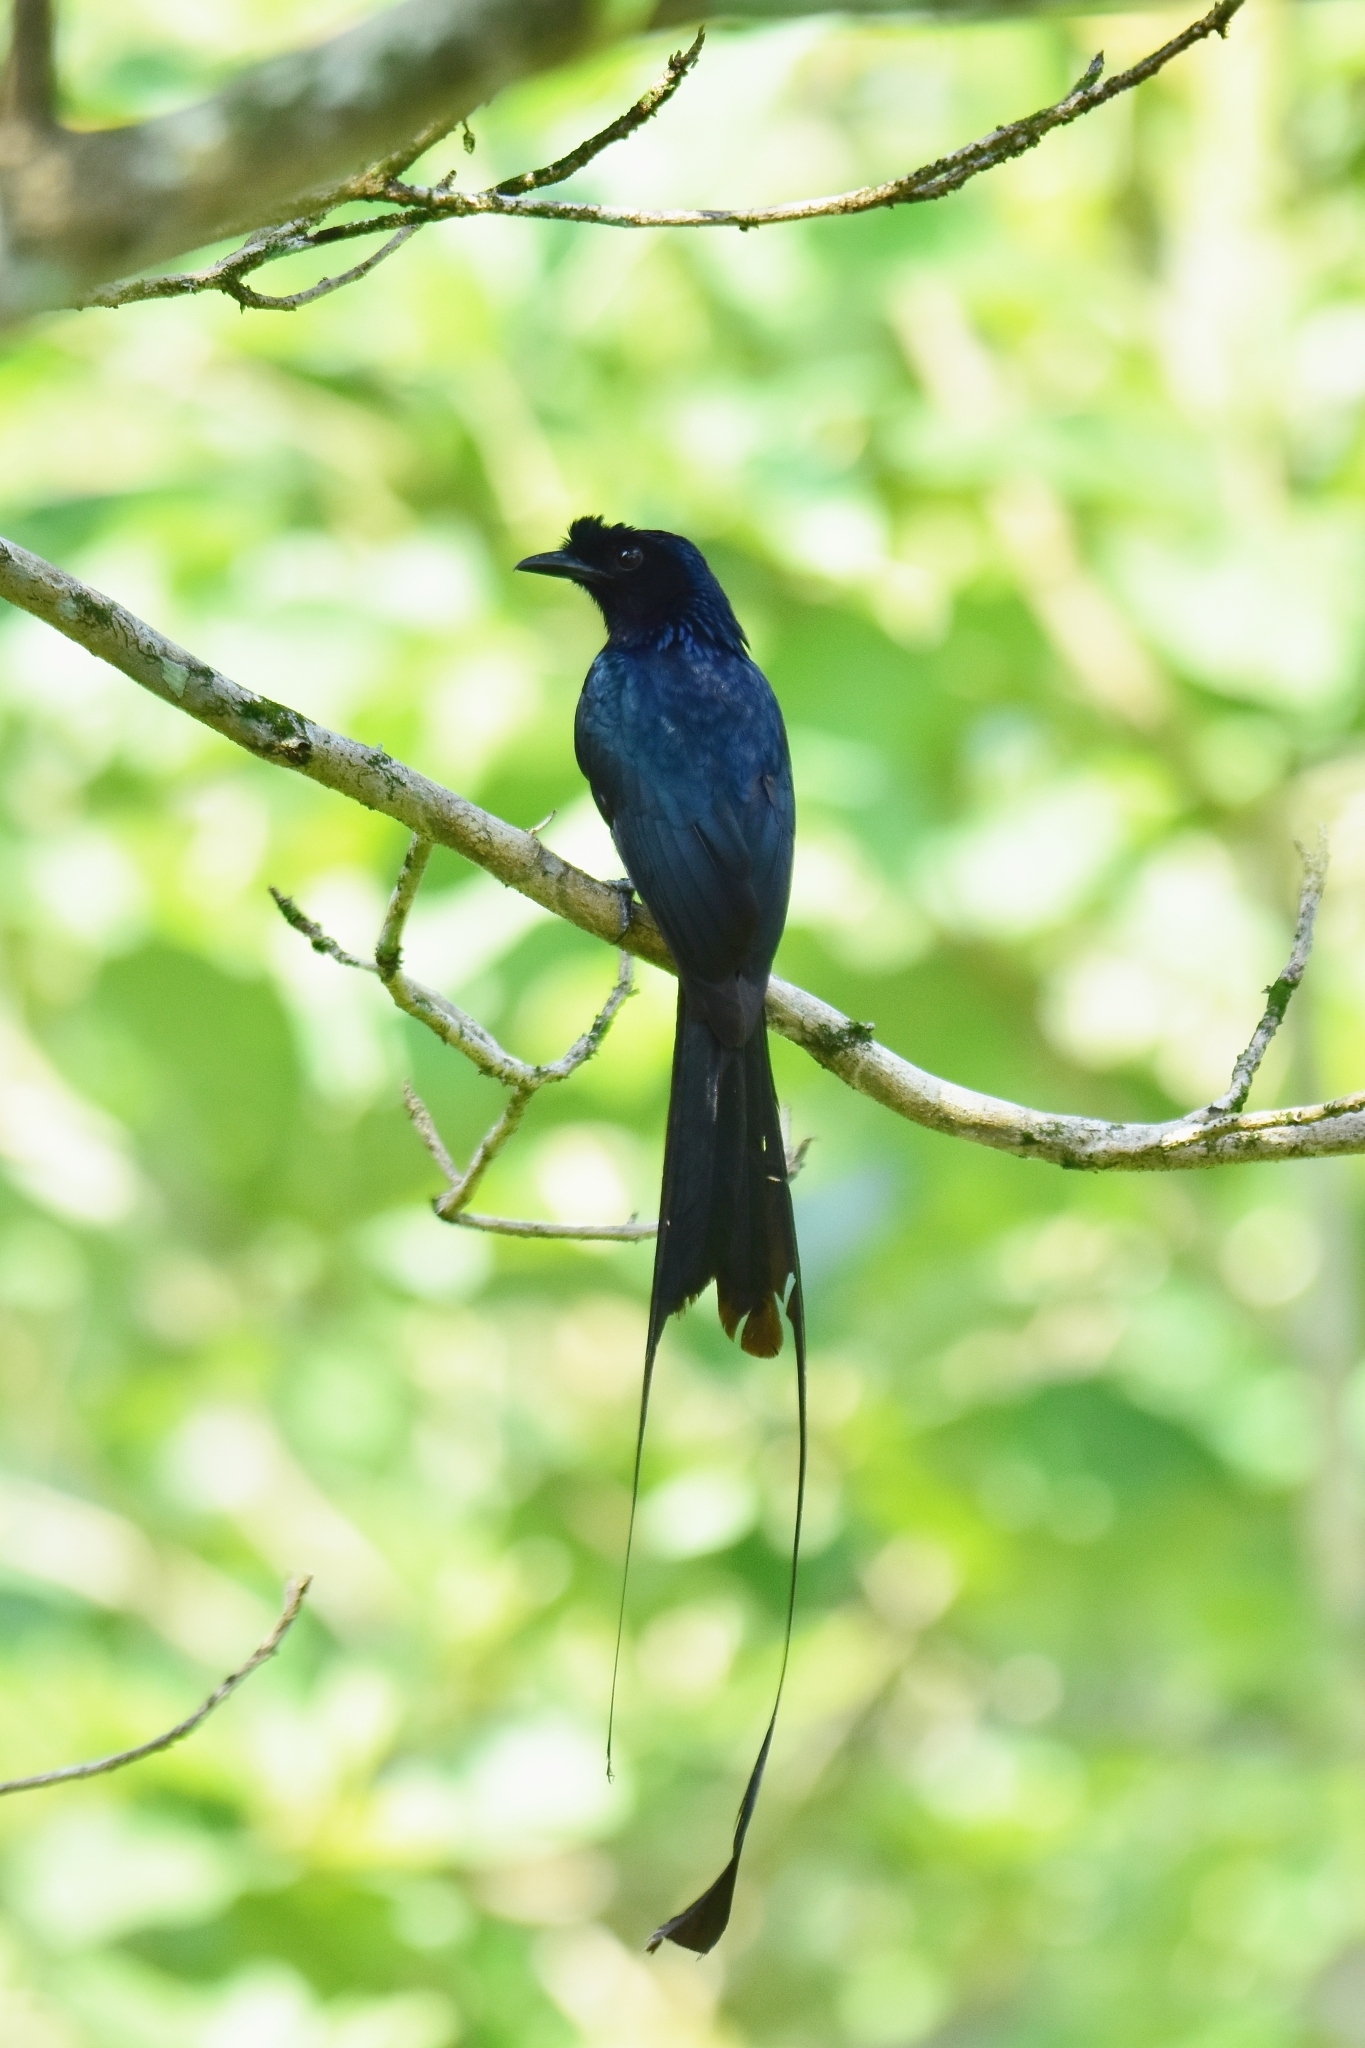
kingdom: Animalia
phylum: Chordata
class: Aves
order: Passeriformes
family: Dicruridae
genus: Dicrurus
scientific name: Dicrurus paradiseus
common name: Greater racket-tailed drongo
